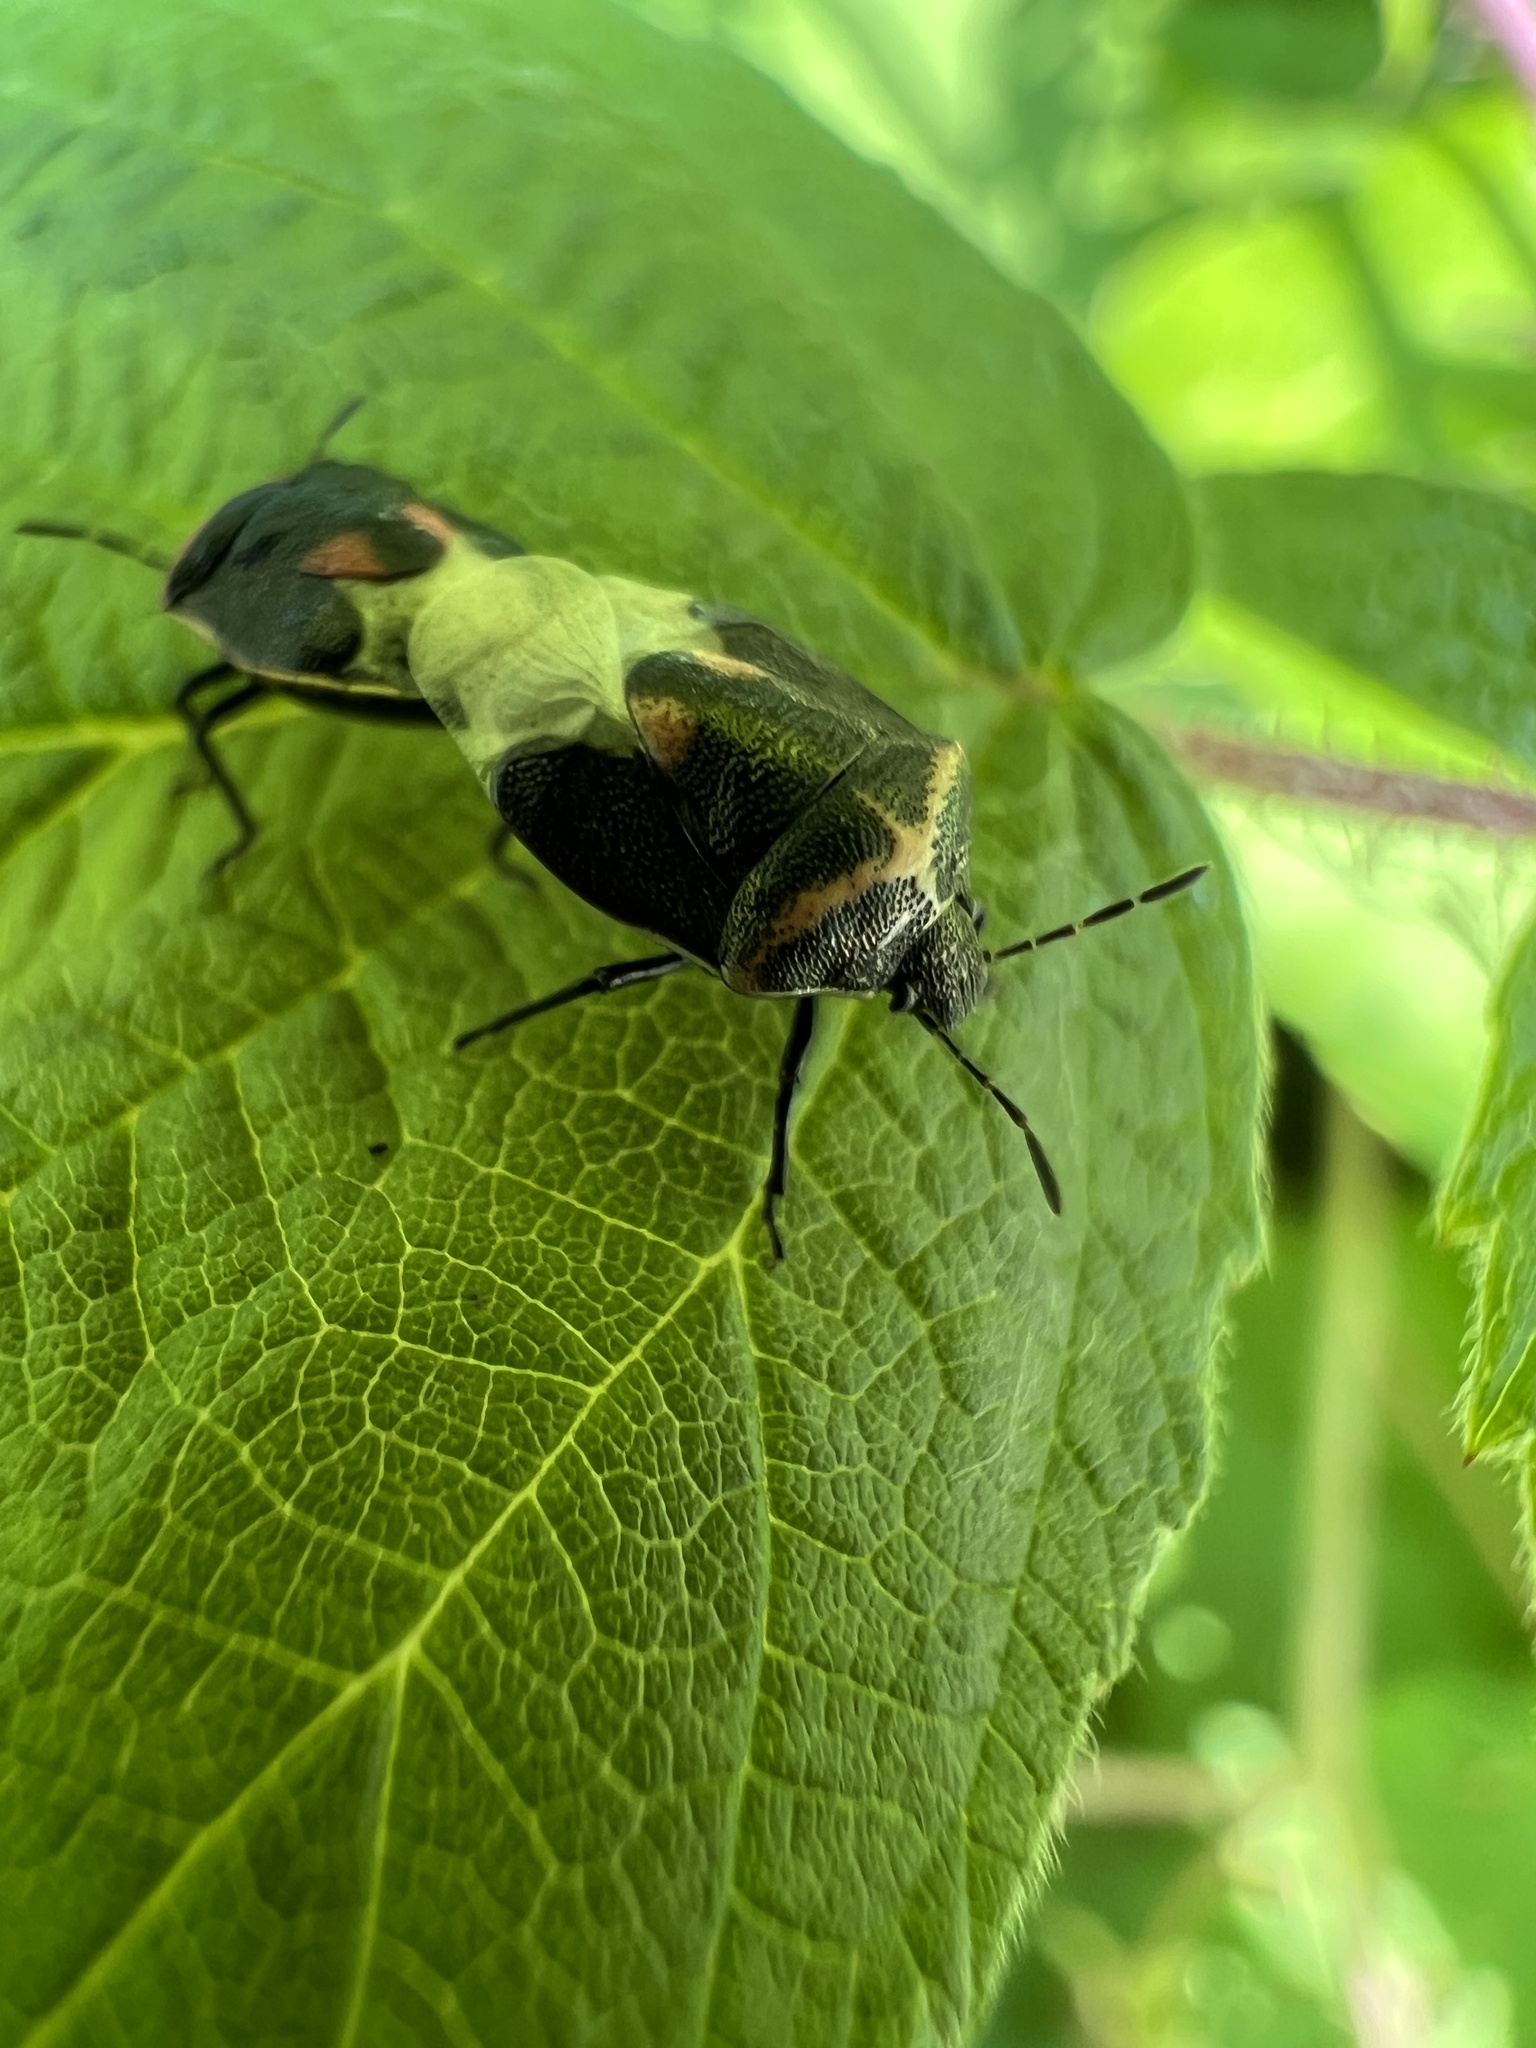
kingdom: Animalia
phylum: Arthropoda
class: Insecta
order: Hemiptera
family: Pentatomidae
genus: Cosmopepla
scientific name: Cosmopepla lintneriana
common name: Twice-stabbed stink bug
